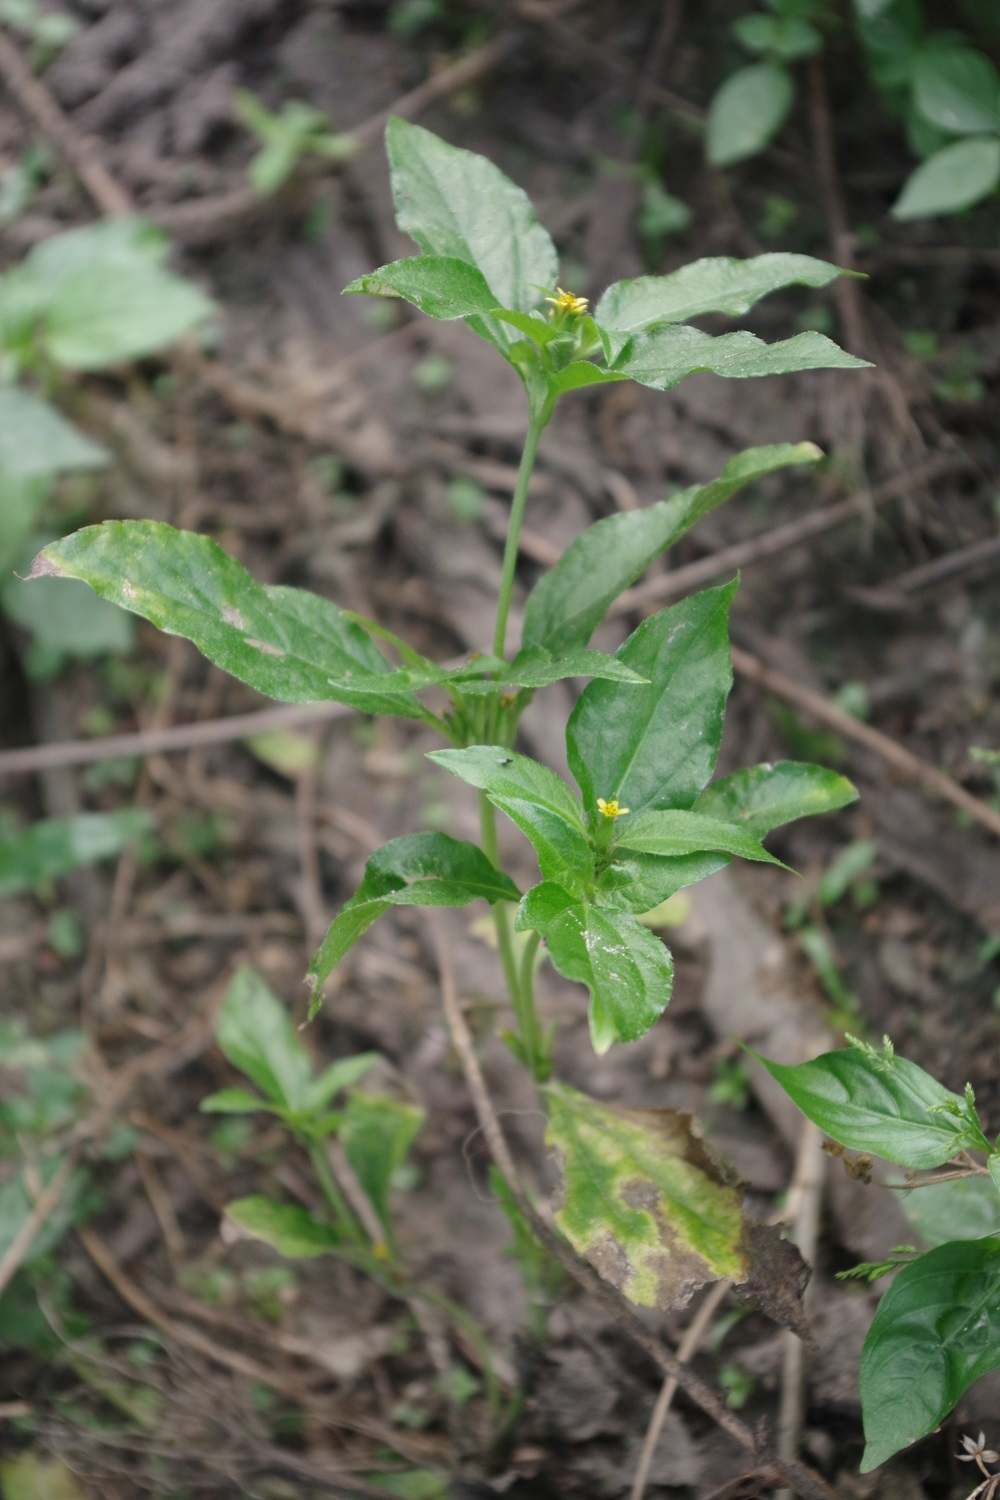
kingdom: Plantae
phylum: Tracheophyta
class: Magnoliopsida
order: Asterales
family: Asteraceae
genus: Synedrella
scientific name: Synedrella nodiflora
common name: Nodeweed
